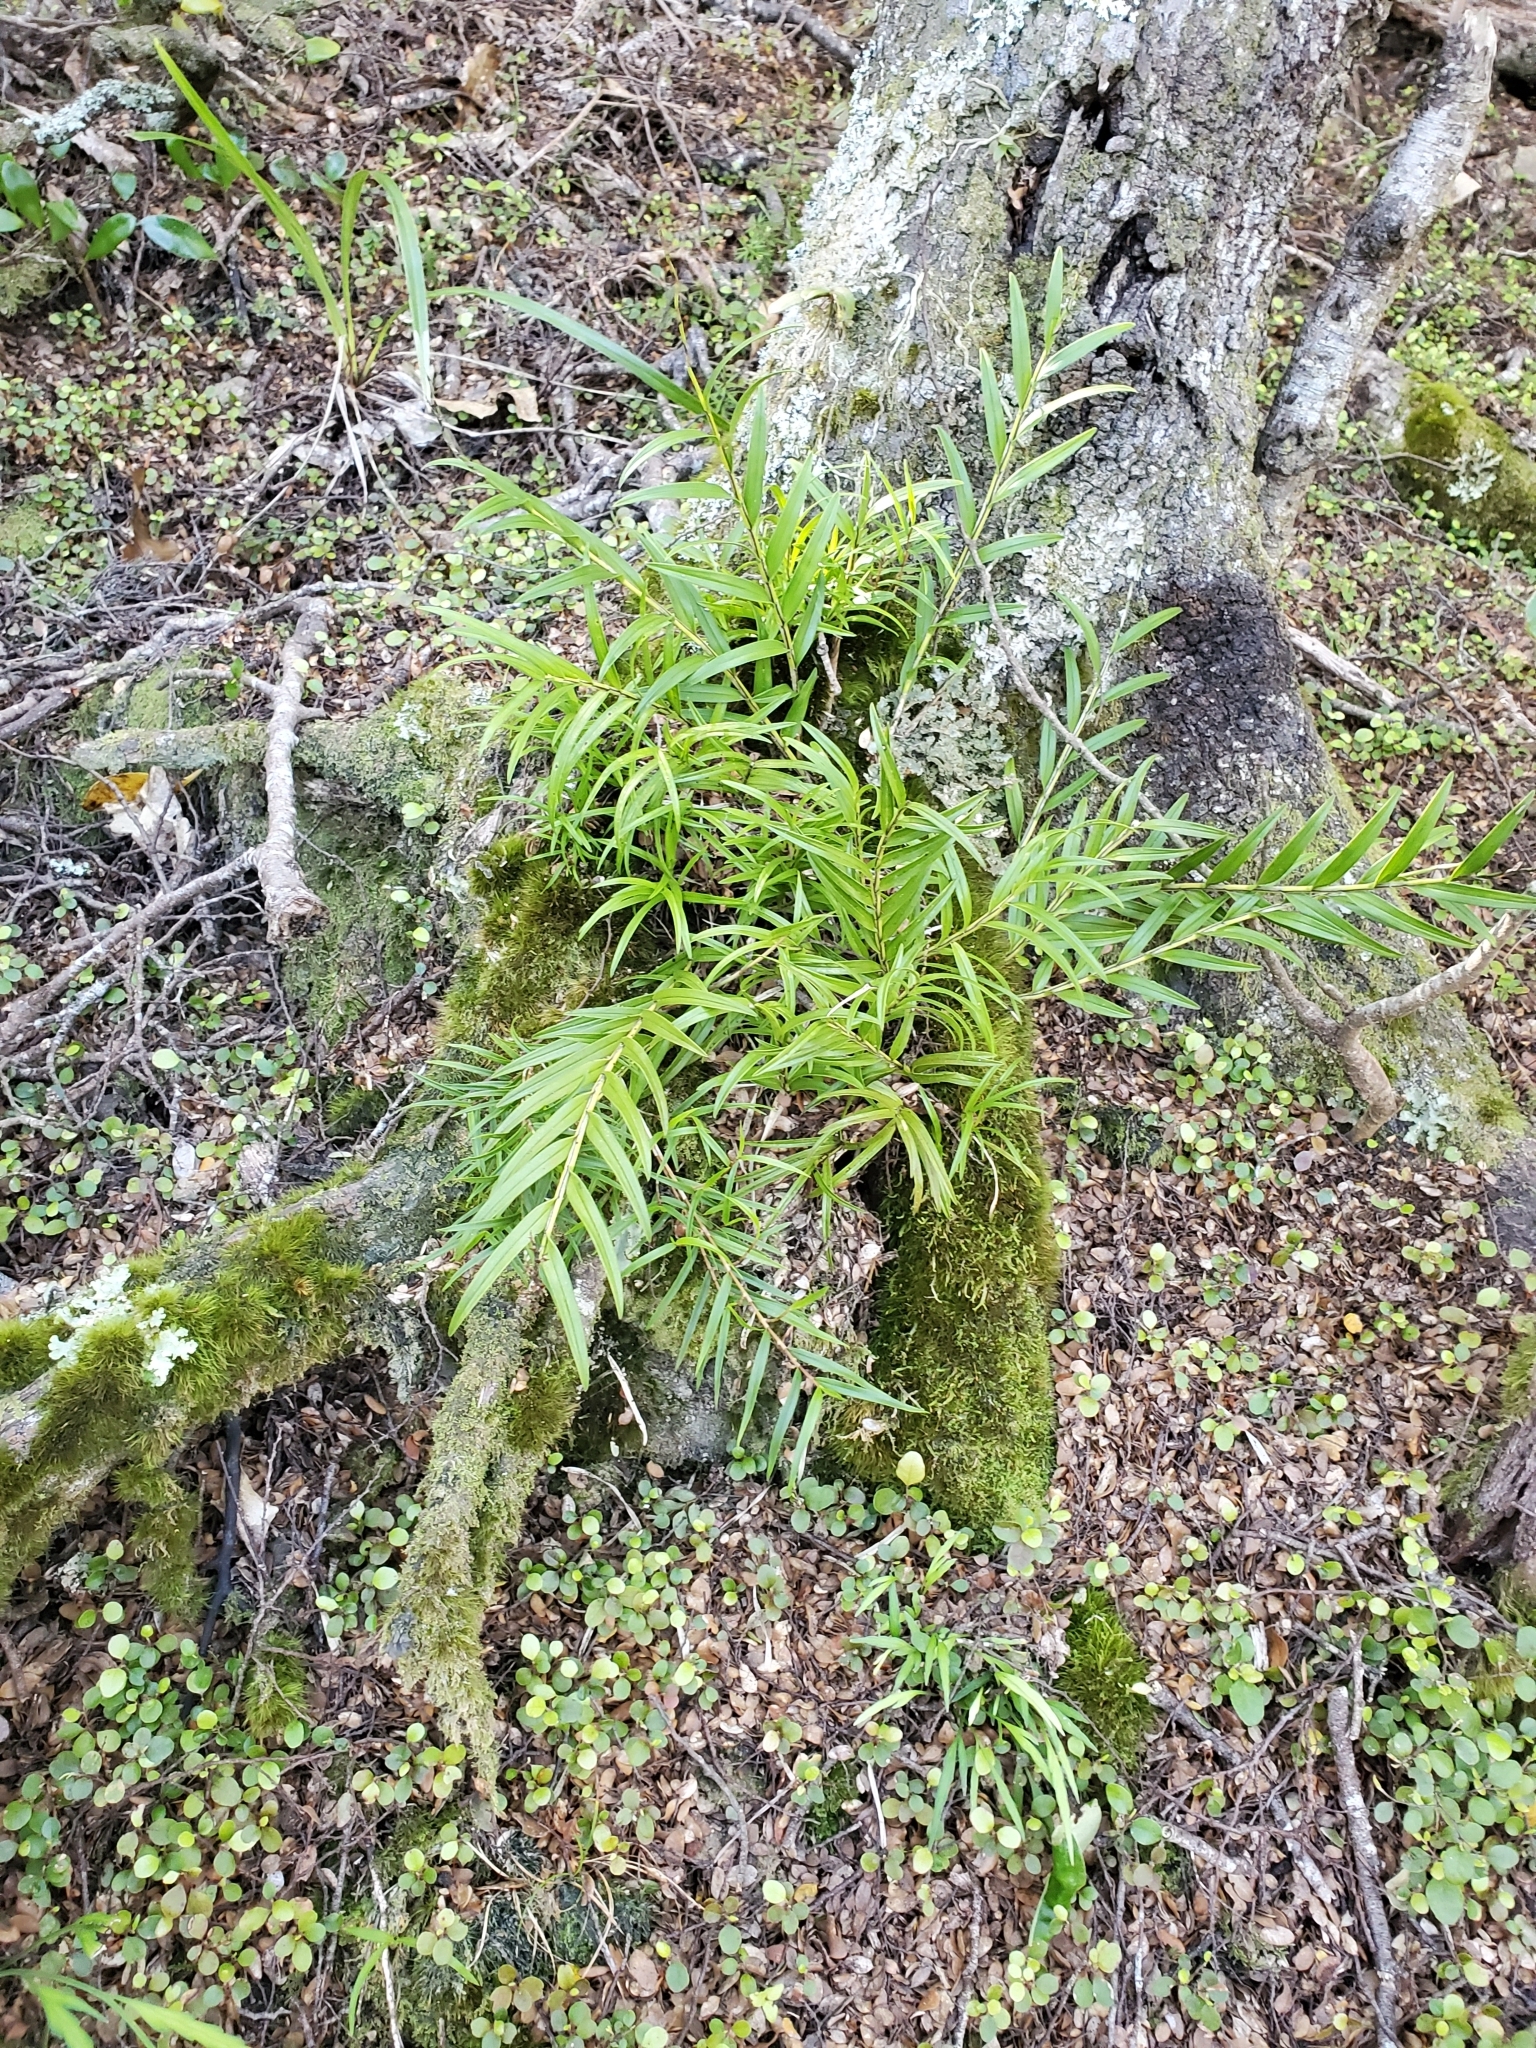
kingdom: Plantae
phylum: Tracheophyta
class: Liliopsida
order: Asparagales
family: Orchidaceae
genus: Earina
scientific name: Earina autumnalis
